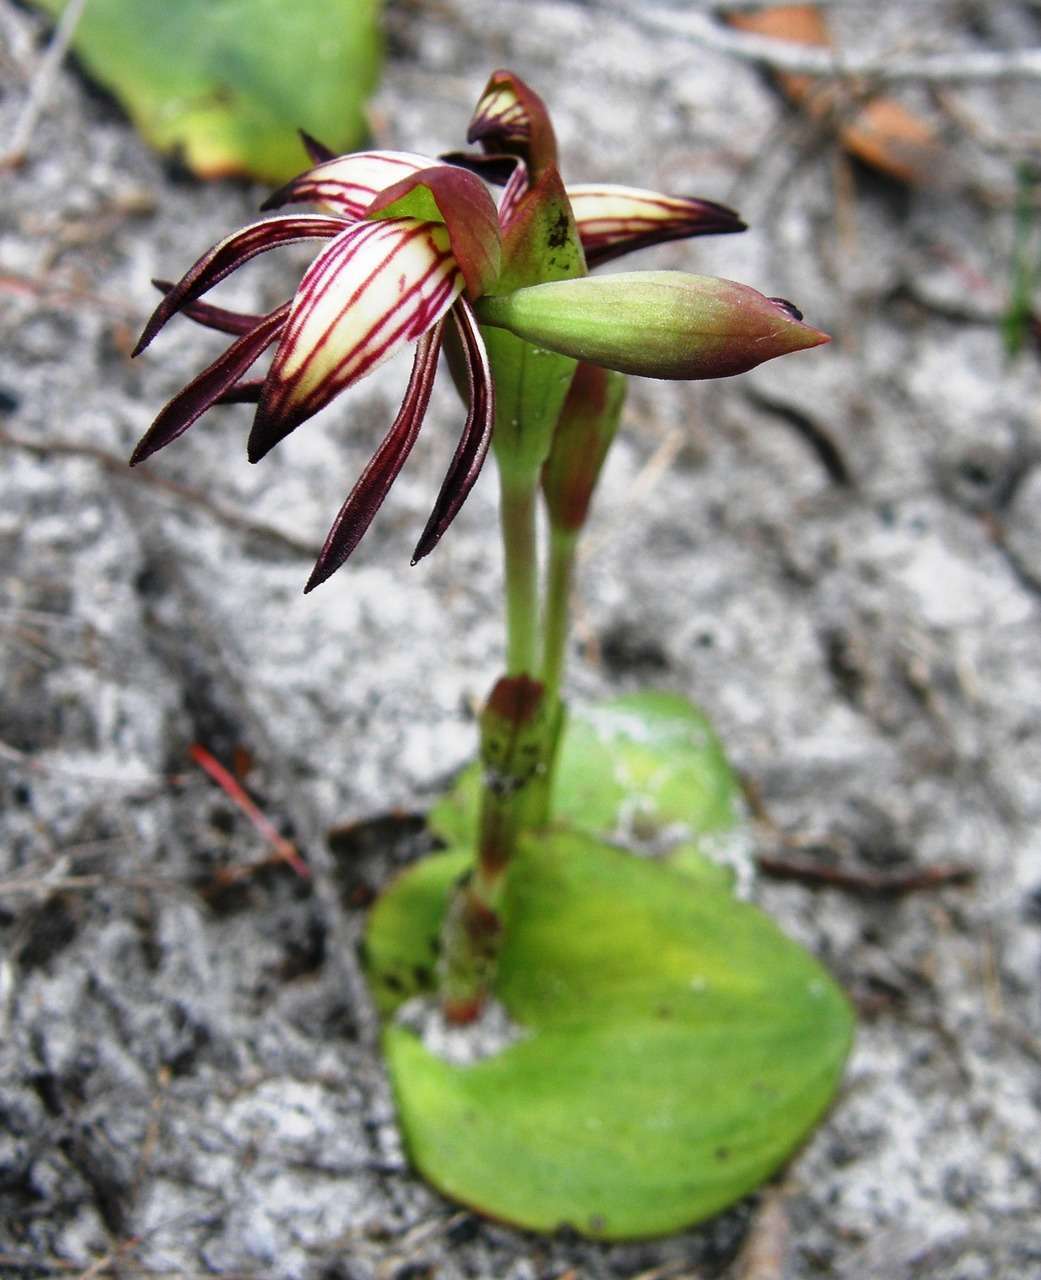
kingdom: Plantae
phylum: Tracheophyta
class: Liliopsida
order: Asparagales
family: Orchidaceae
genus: Pyrorchis
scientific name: Pyrorchis nigricans
